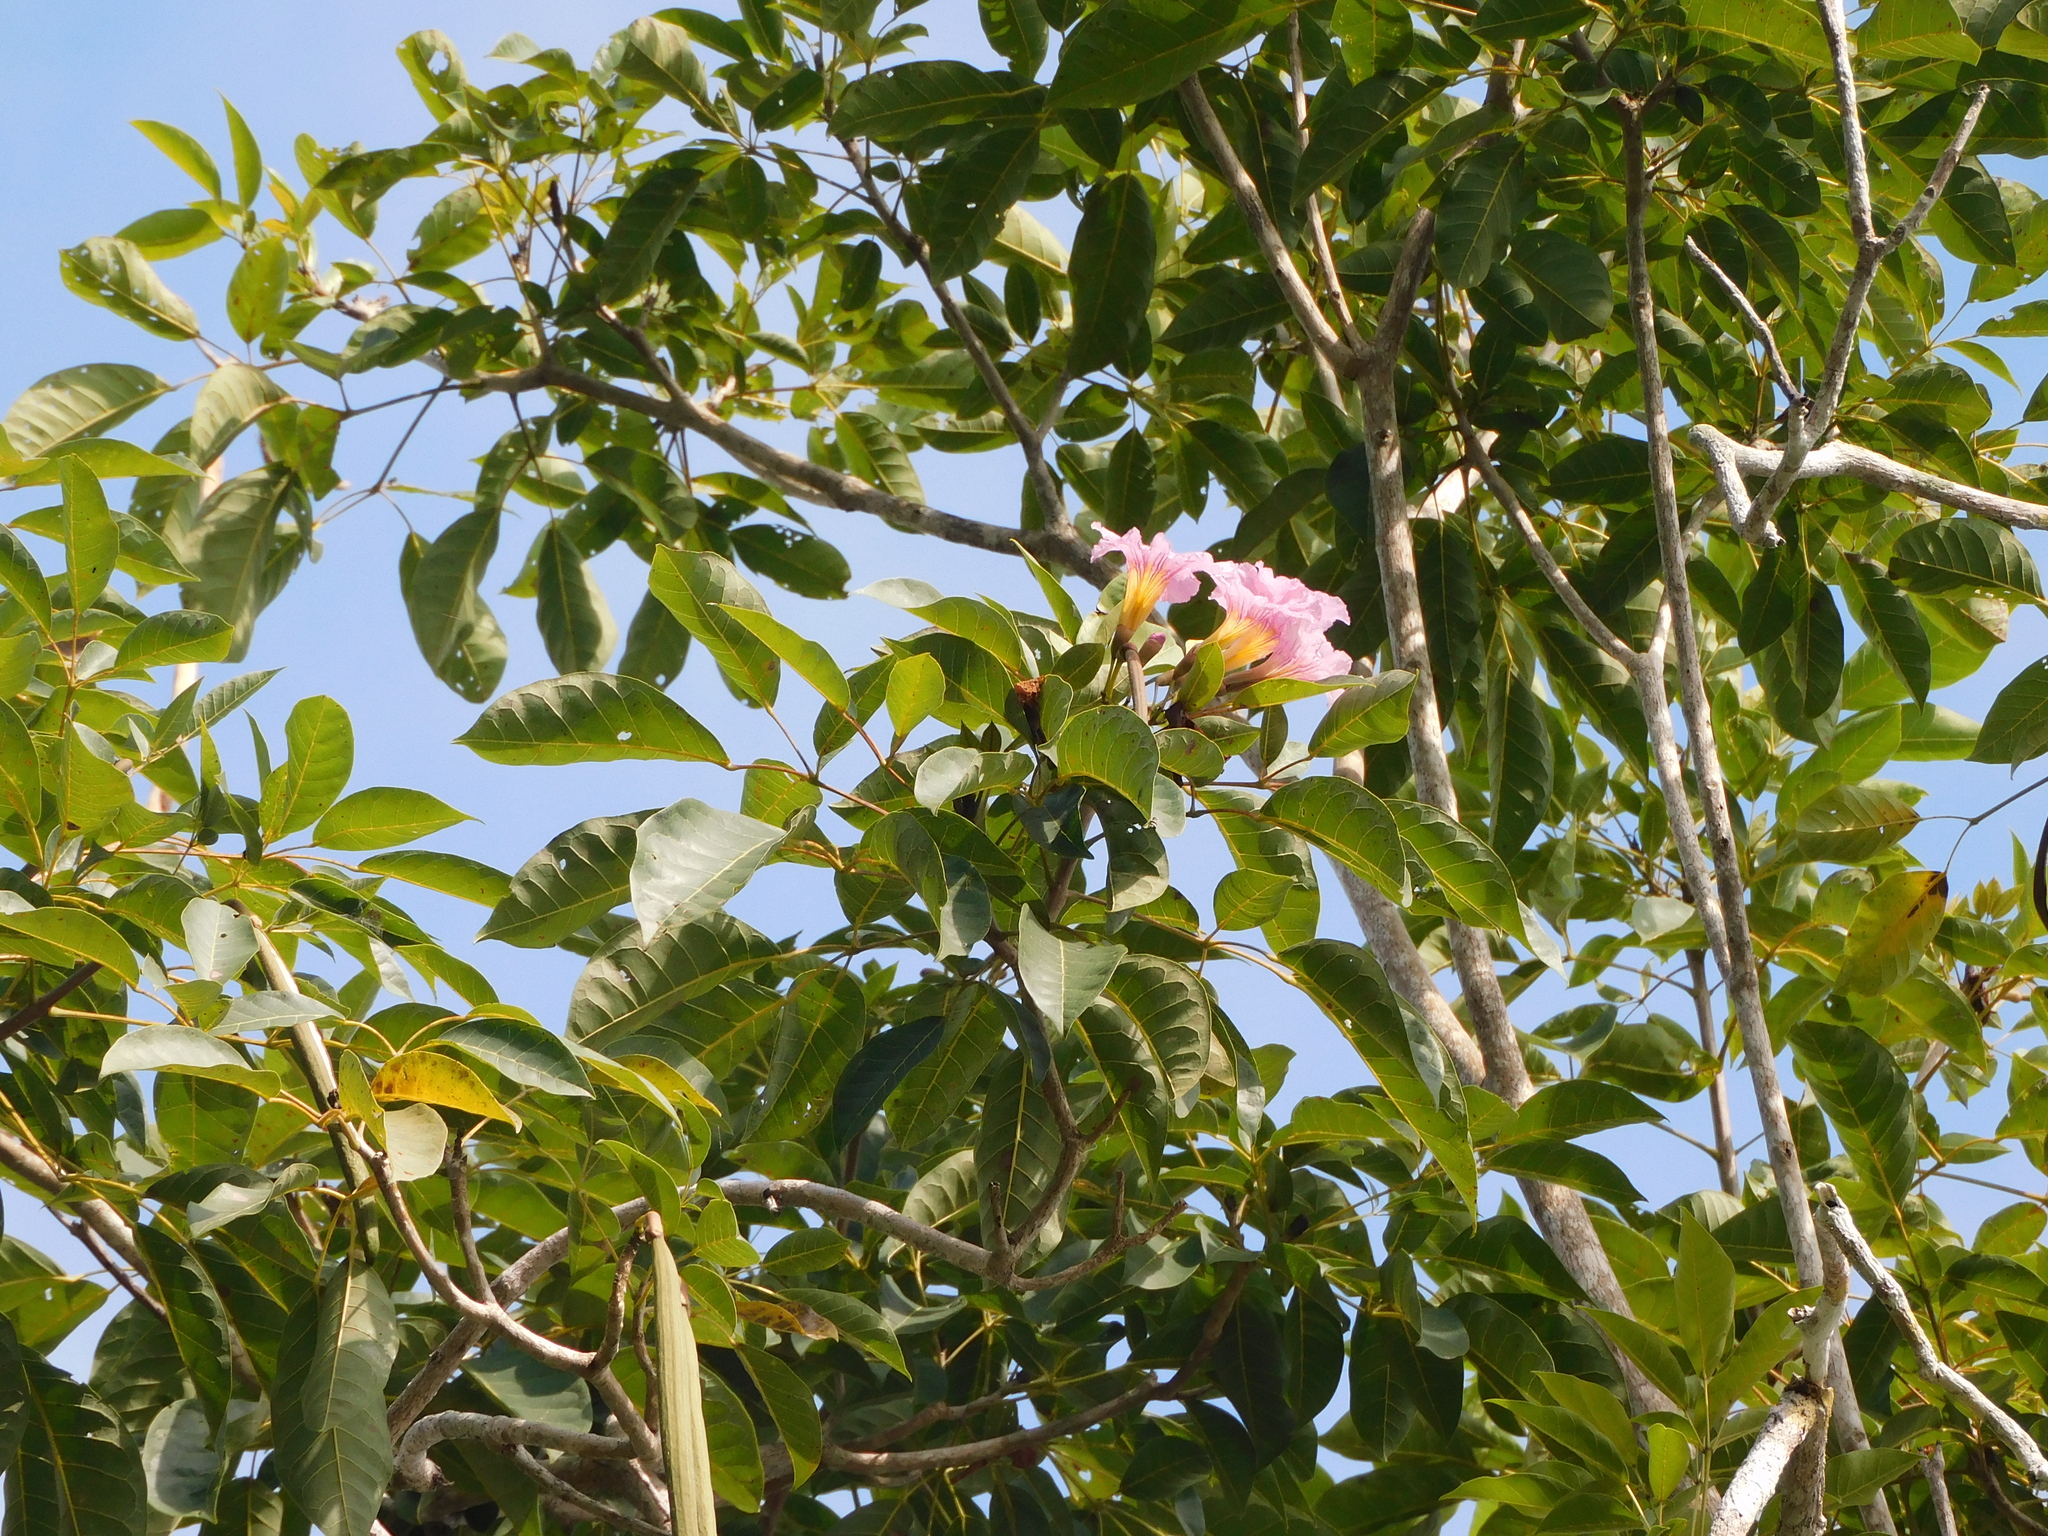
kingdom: Plantae
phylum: Tracheophyta
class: Magnoliopsida
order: Lamiales
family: Bignoniaceae
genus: Tabebuia
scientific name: Tabebuia rosea
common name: Pink poui
